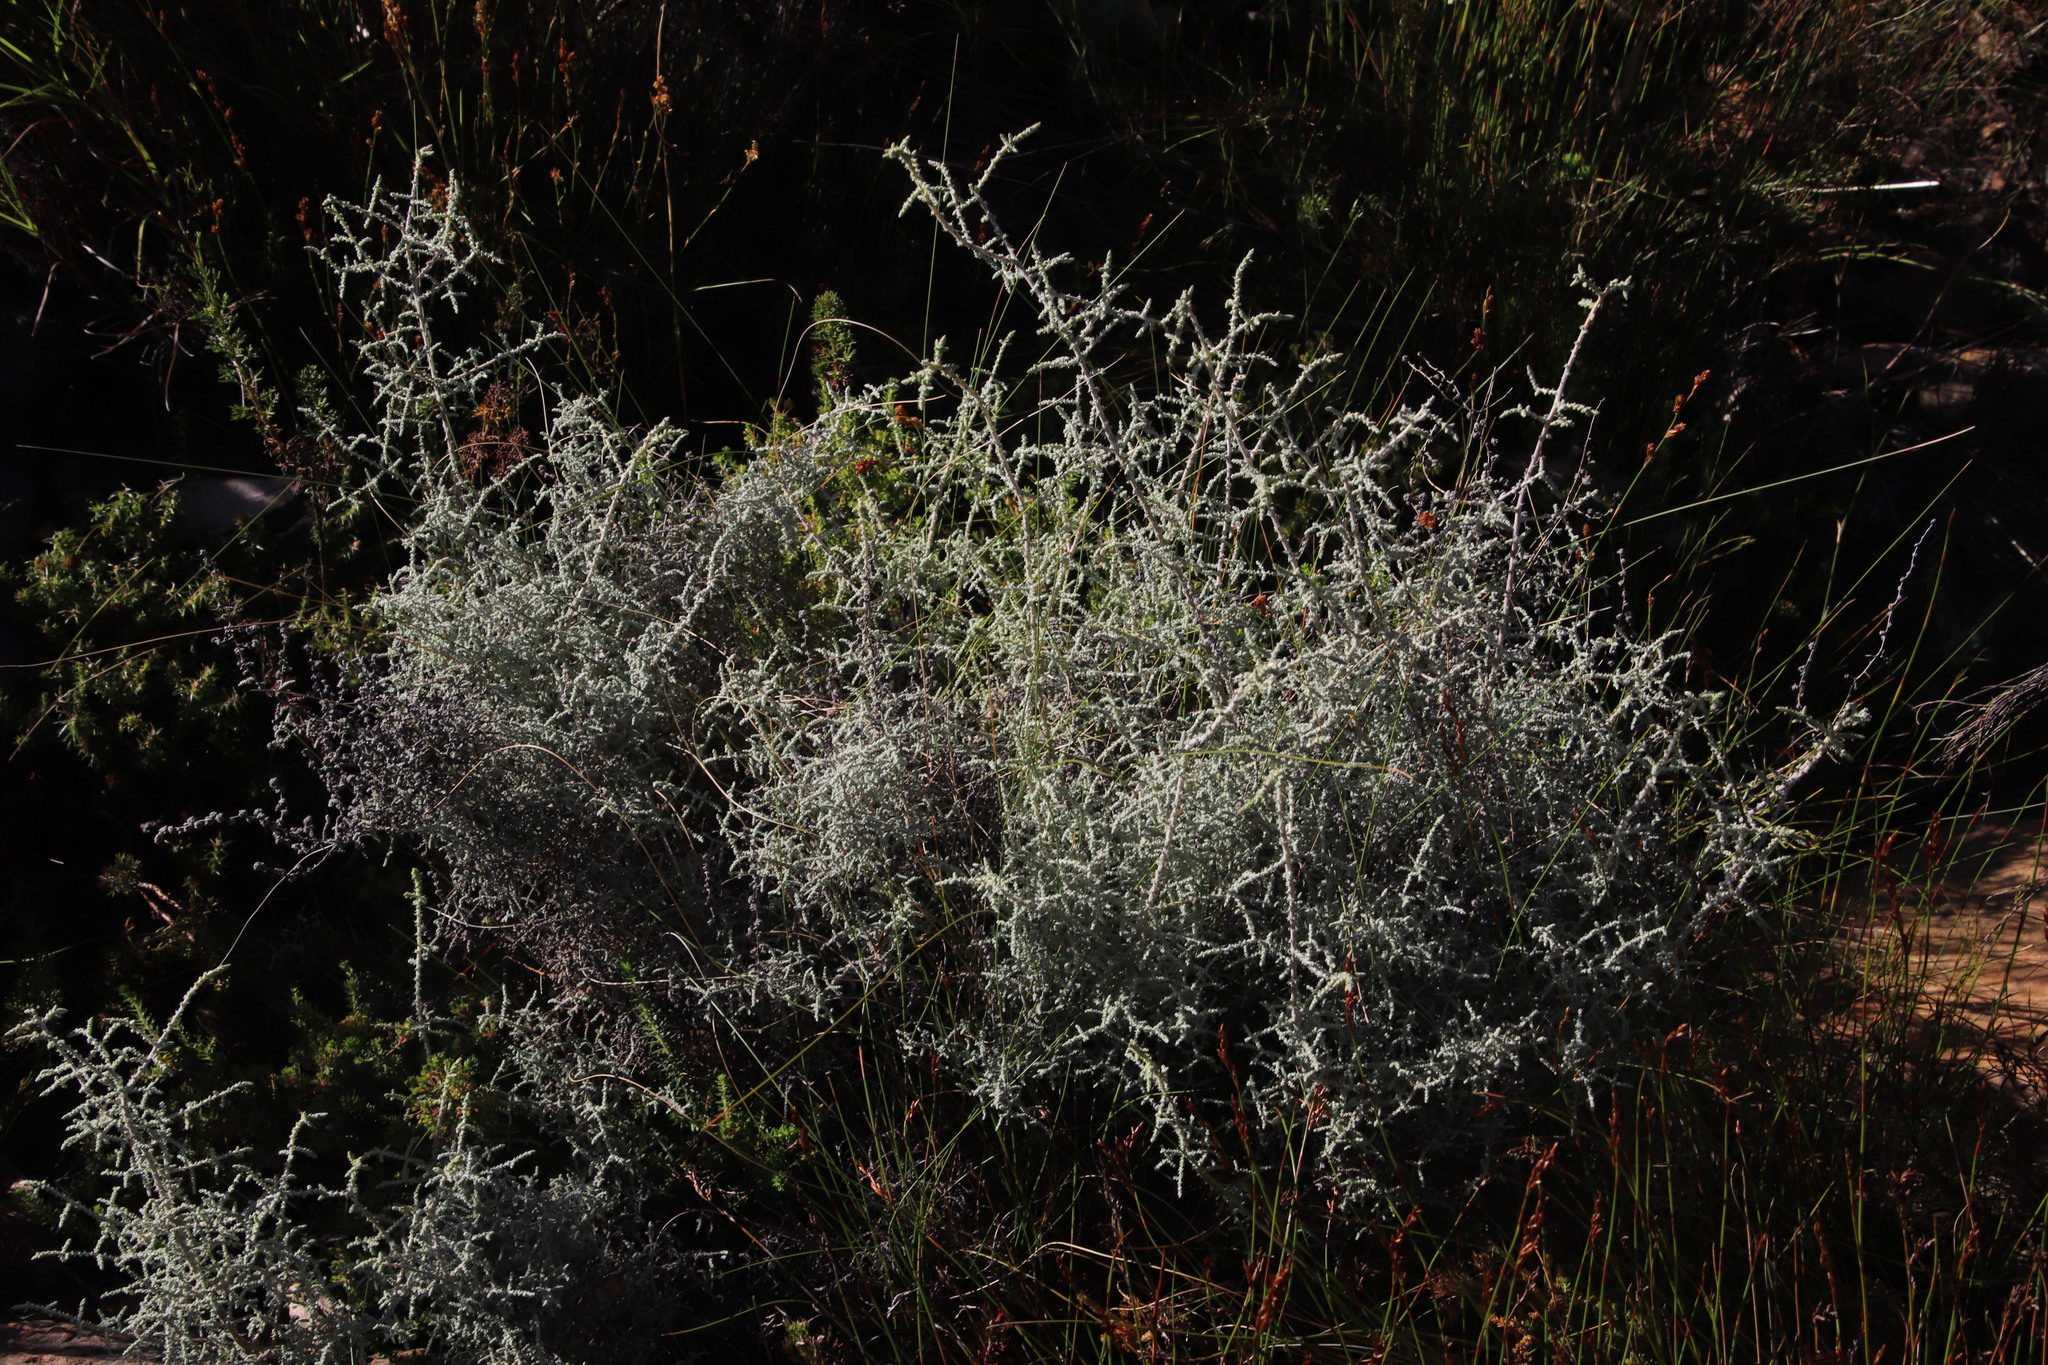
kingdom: Plantae
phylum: Tracheophyta
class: Magnoliopsida
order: Asterales
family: Asteraceae
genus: Seriphium
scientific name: Seriphium plumosum
